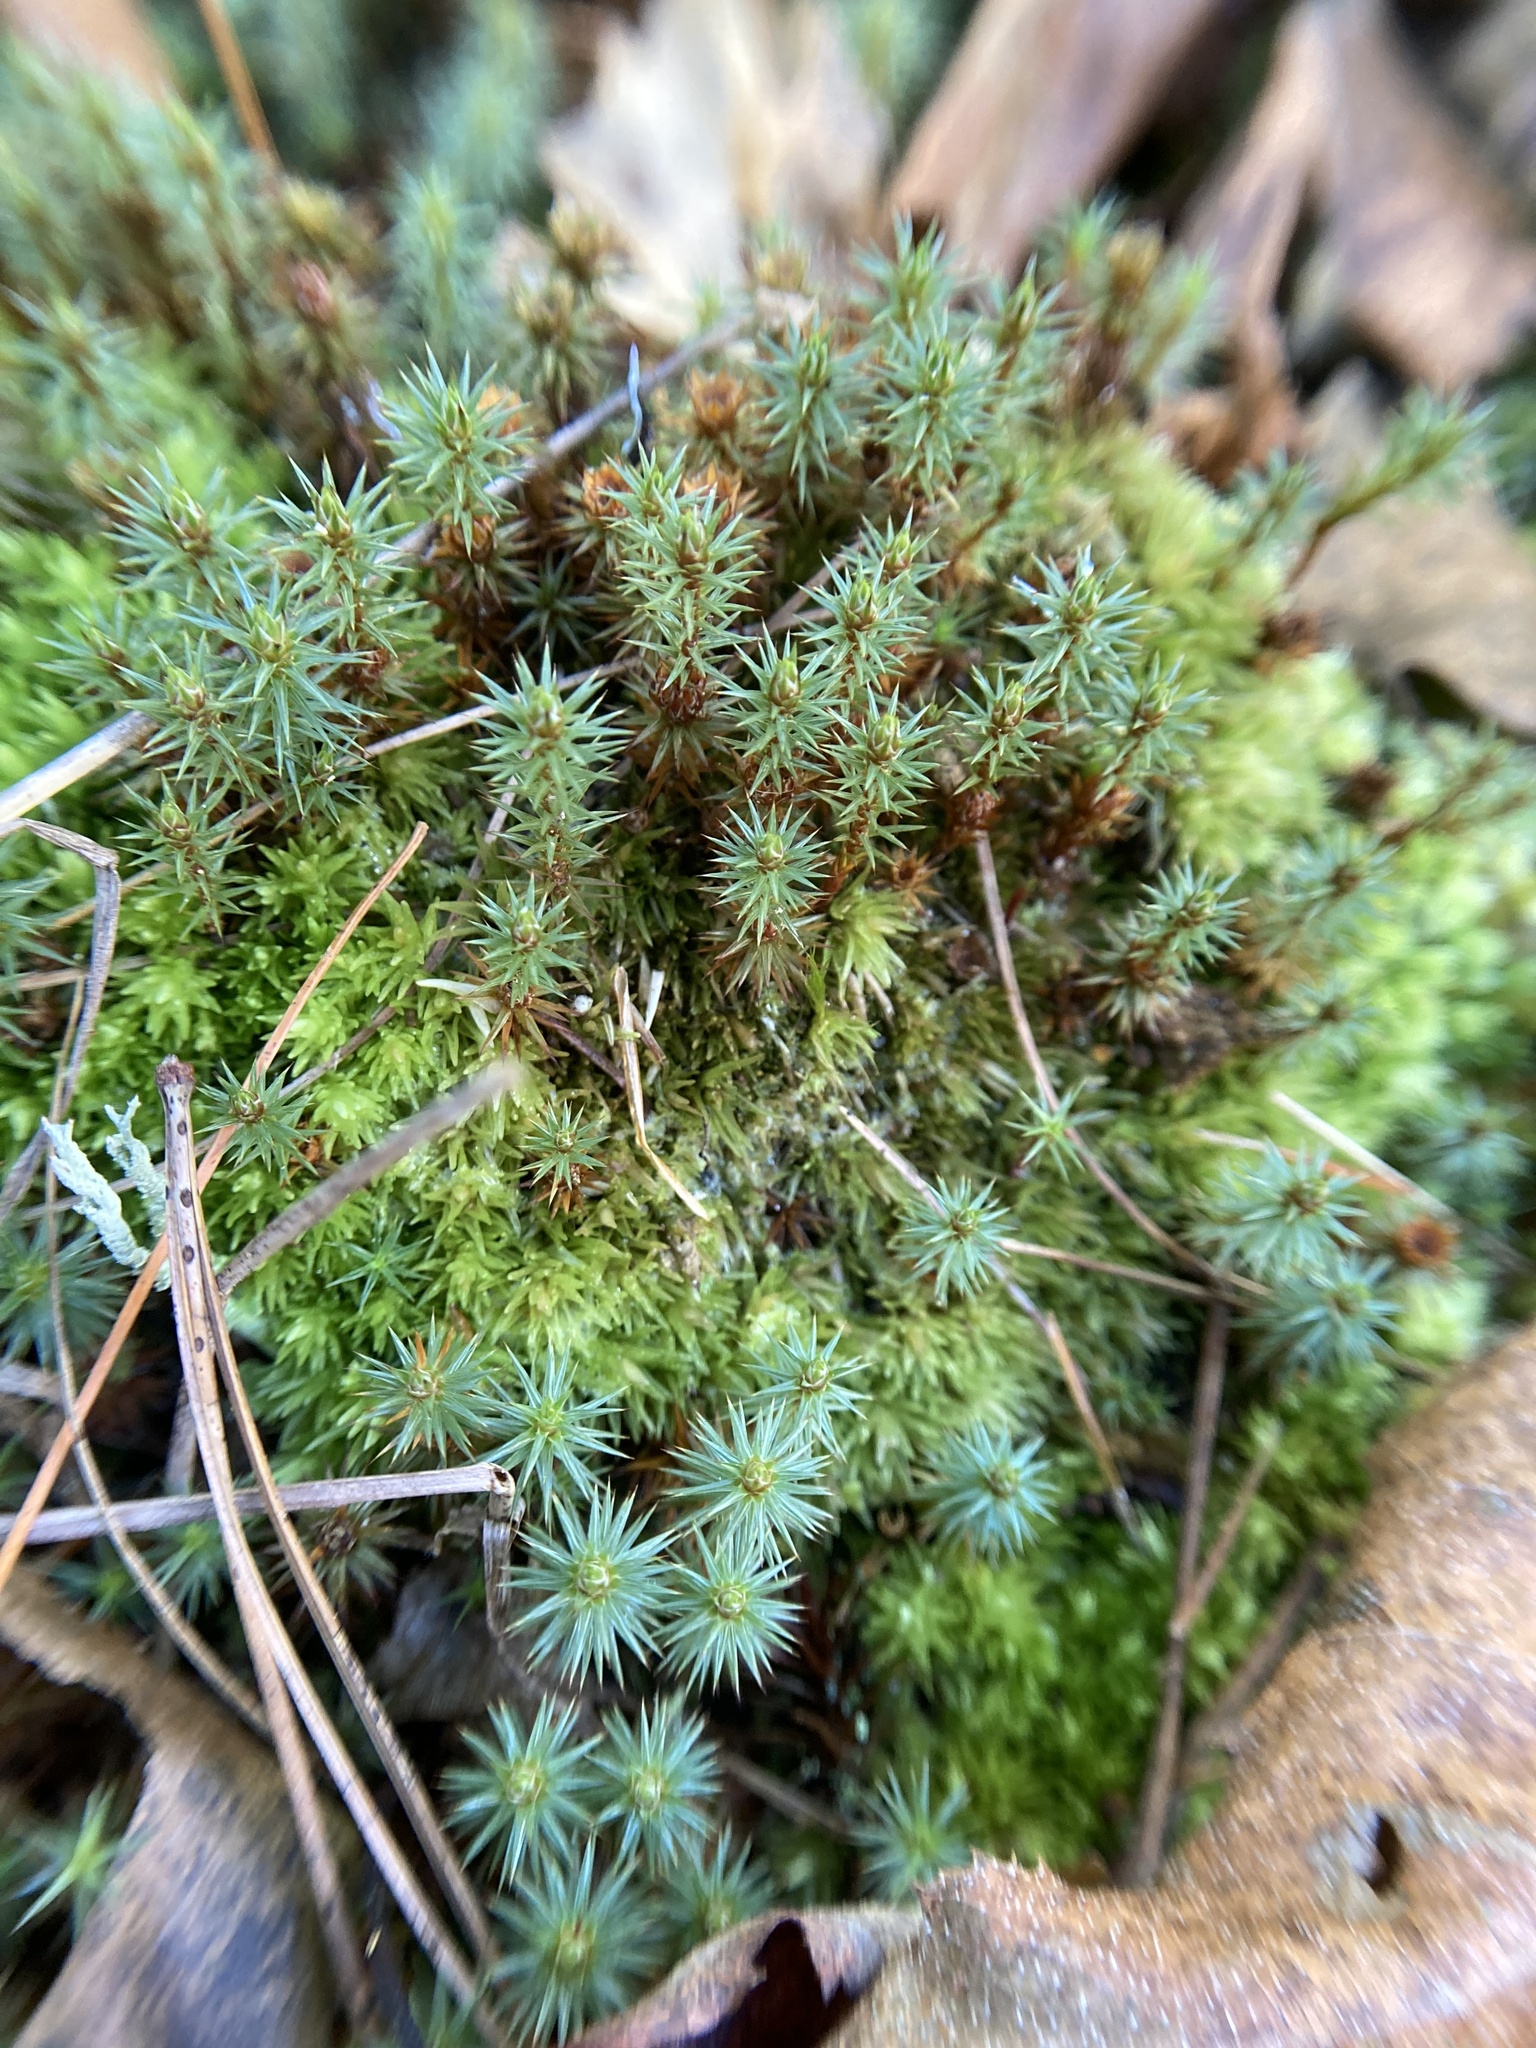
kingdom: Plantae
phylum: Bryophyta
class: Polytrichopsida
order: Polytrichales
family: Polytrichaceae
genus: Polytrichum
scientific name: Polytrichum juniperinum
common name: Juniper haircap moss
